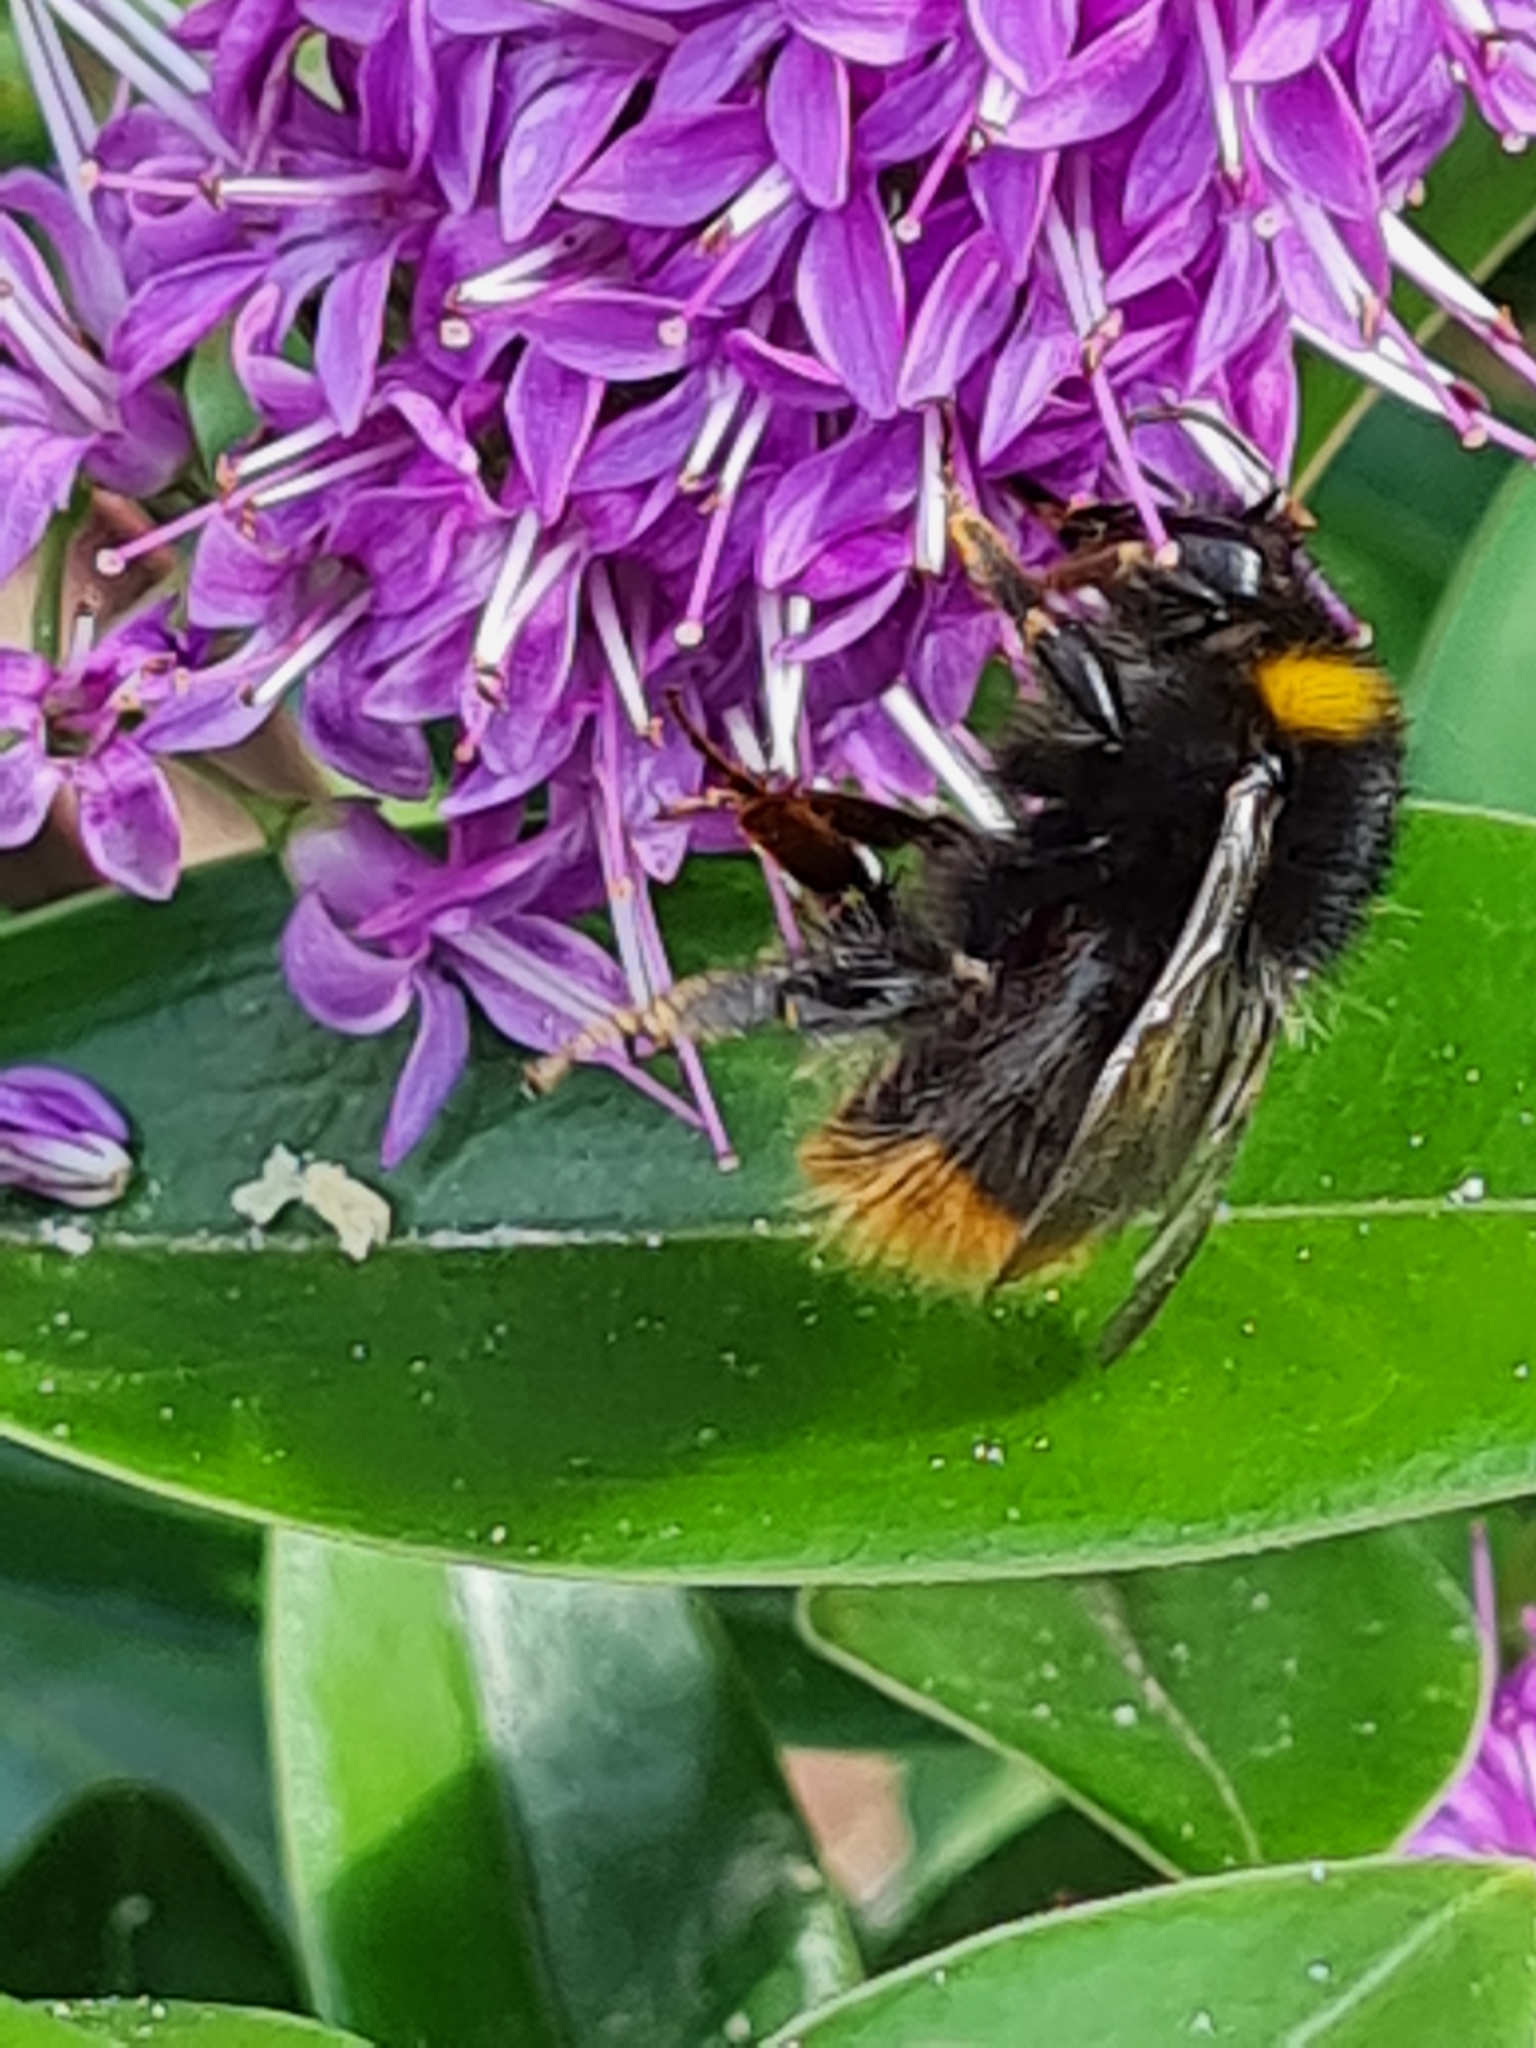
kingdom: Animalia
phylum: Arthropoda
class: Insecta
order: Hymenoptera
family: Apidae
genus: Bombus
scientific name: Bombus pratorum
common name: Early humble-bee
